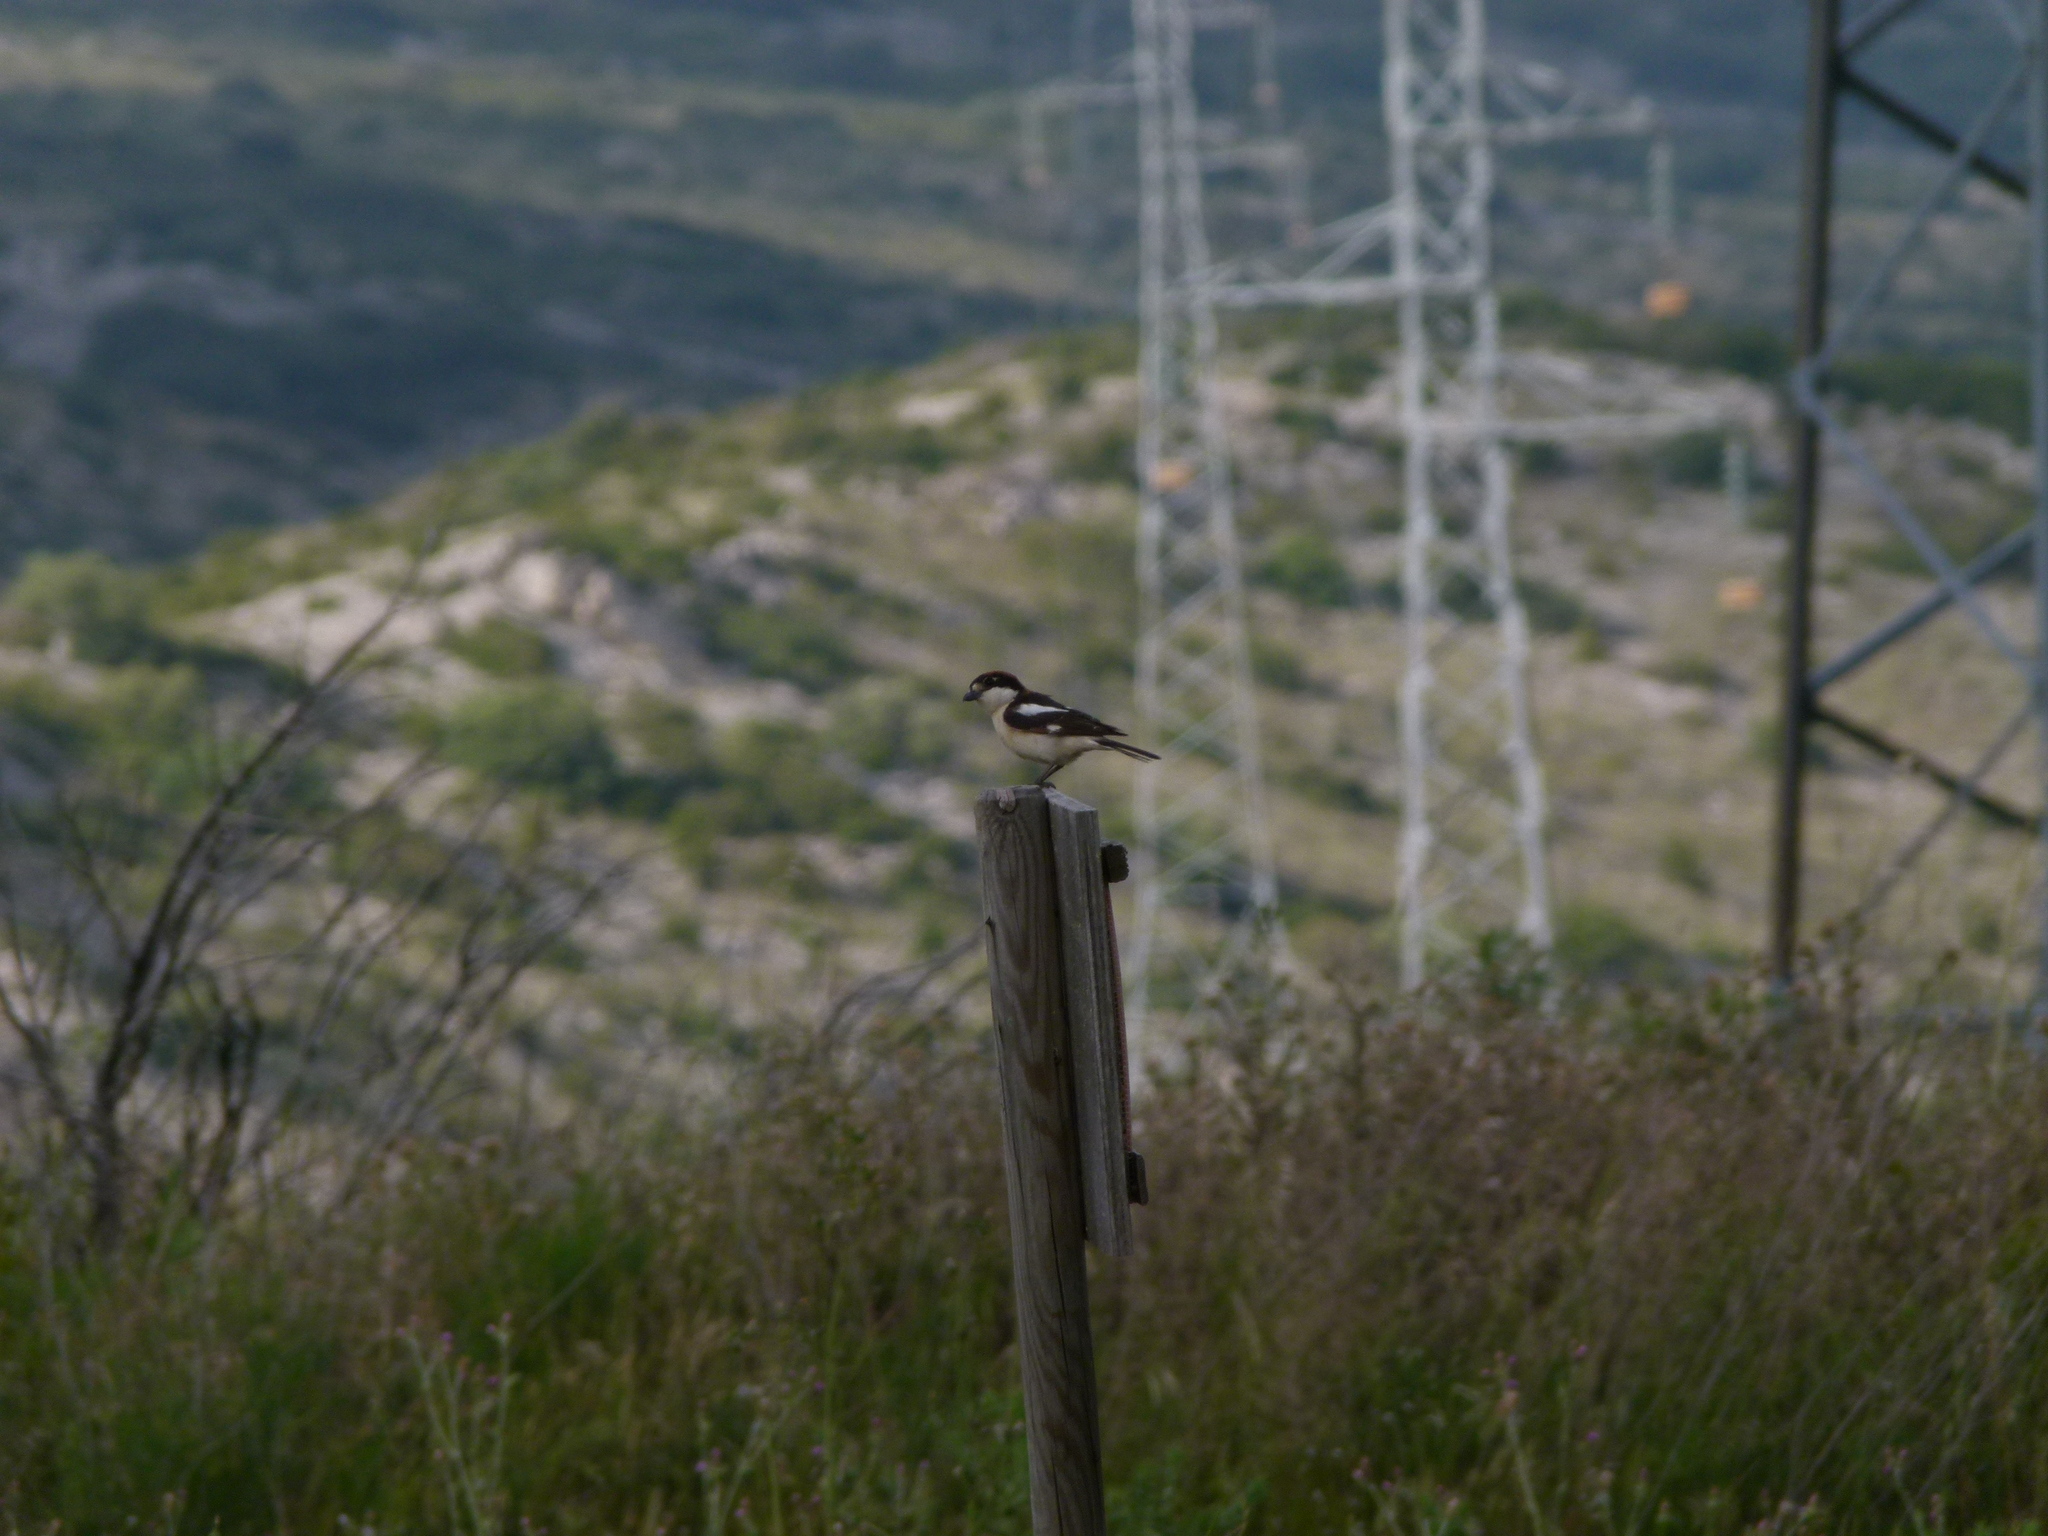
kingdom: Animalia
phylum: Chordata
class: Aves
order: Passeriformes
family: Laniidae
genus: Lanius
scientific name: Lanius senator
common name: Woodchat shrike
